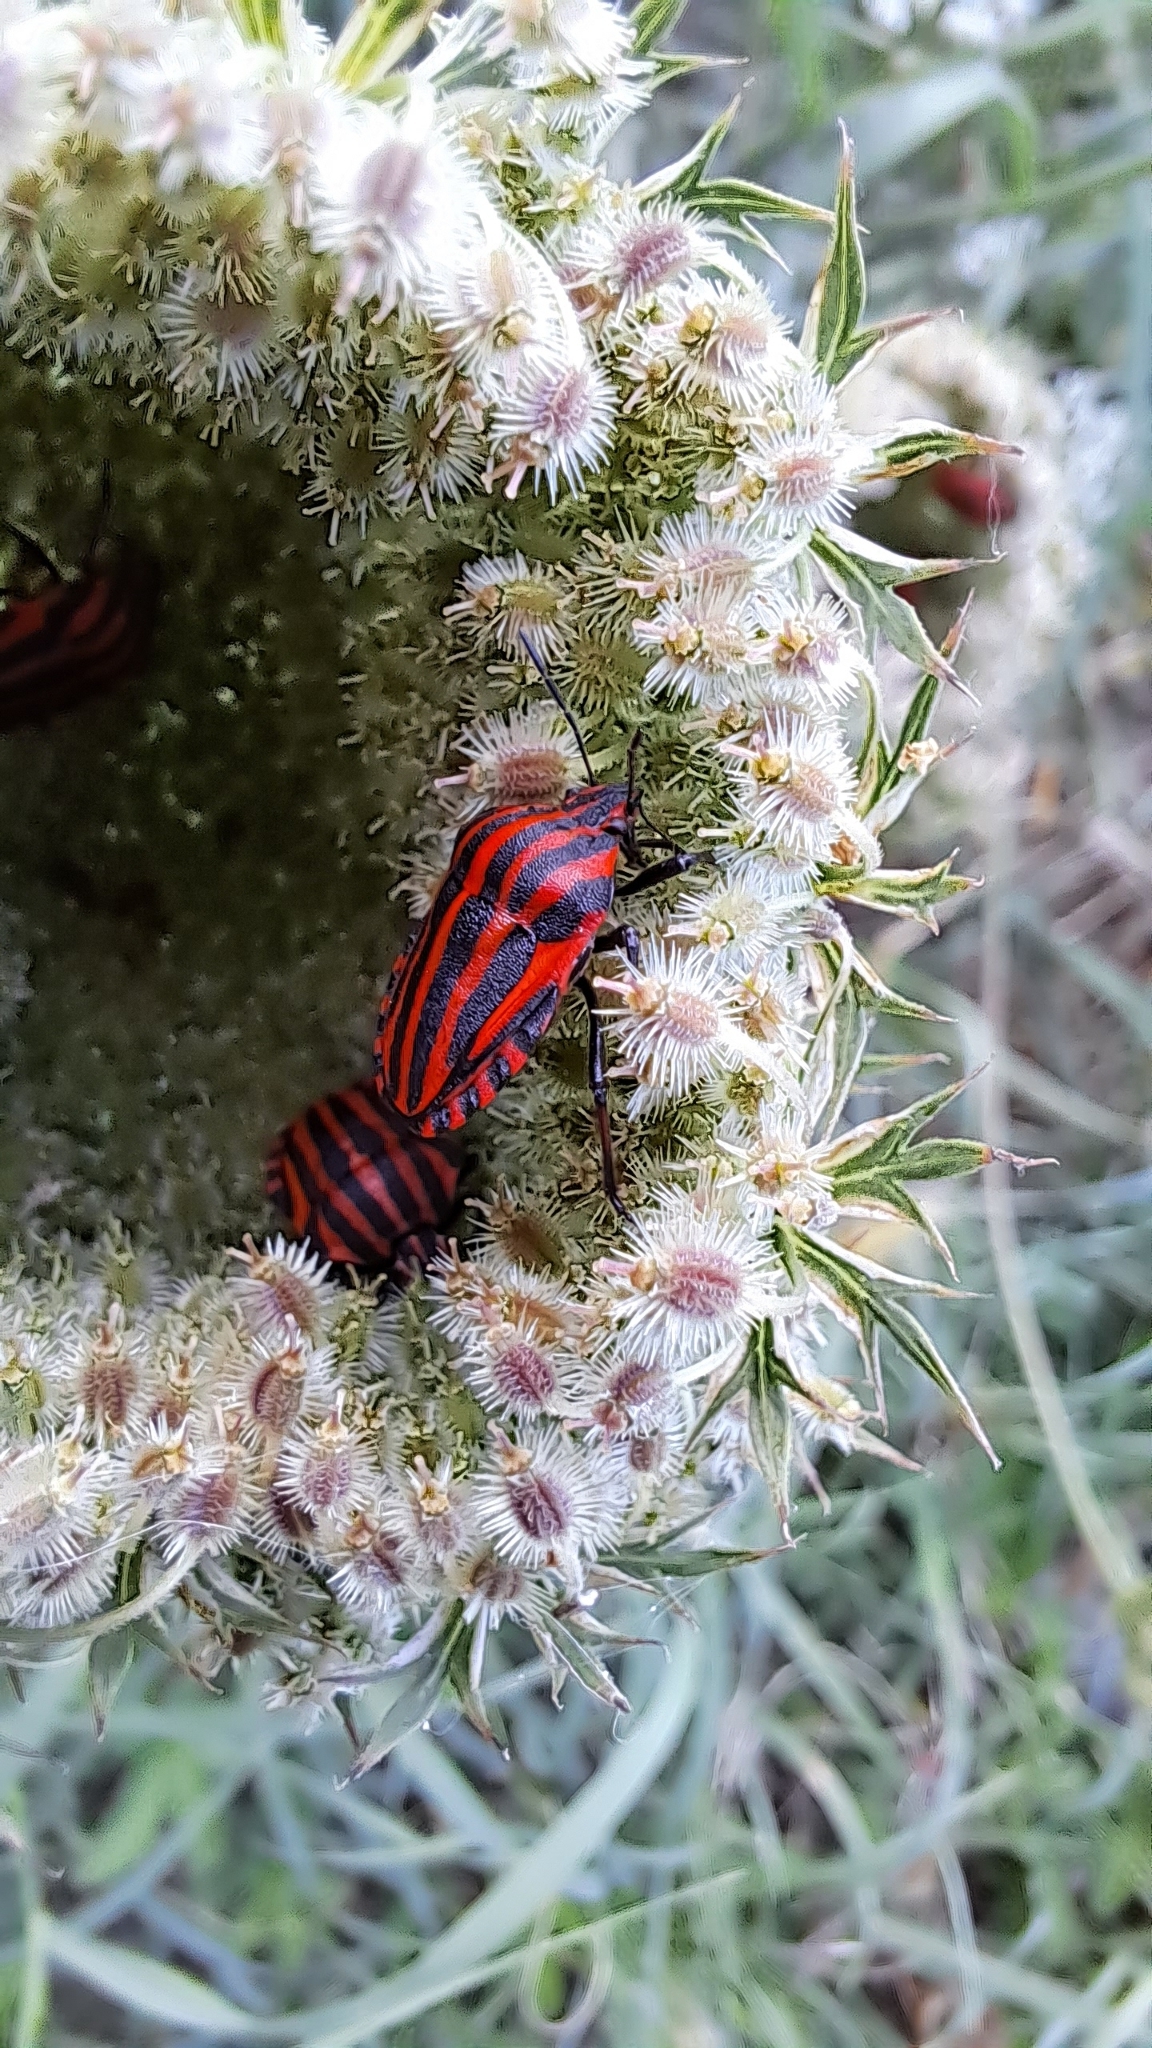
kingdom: Animalia
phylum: Arthropoda
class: Insecta
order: Hemiptera
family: Pentatomidae
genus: Graphosoma
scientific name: Graphosoma italicum
